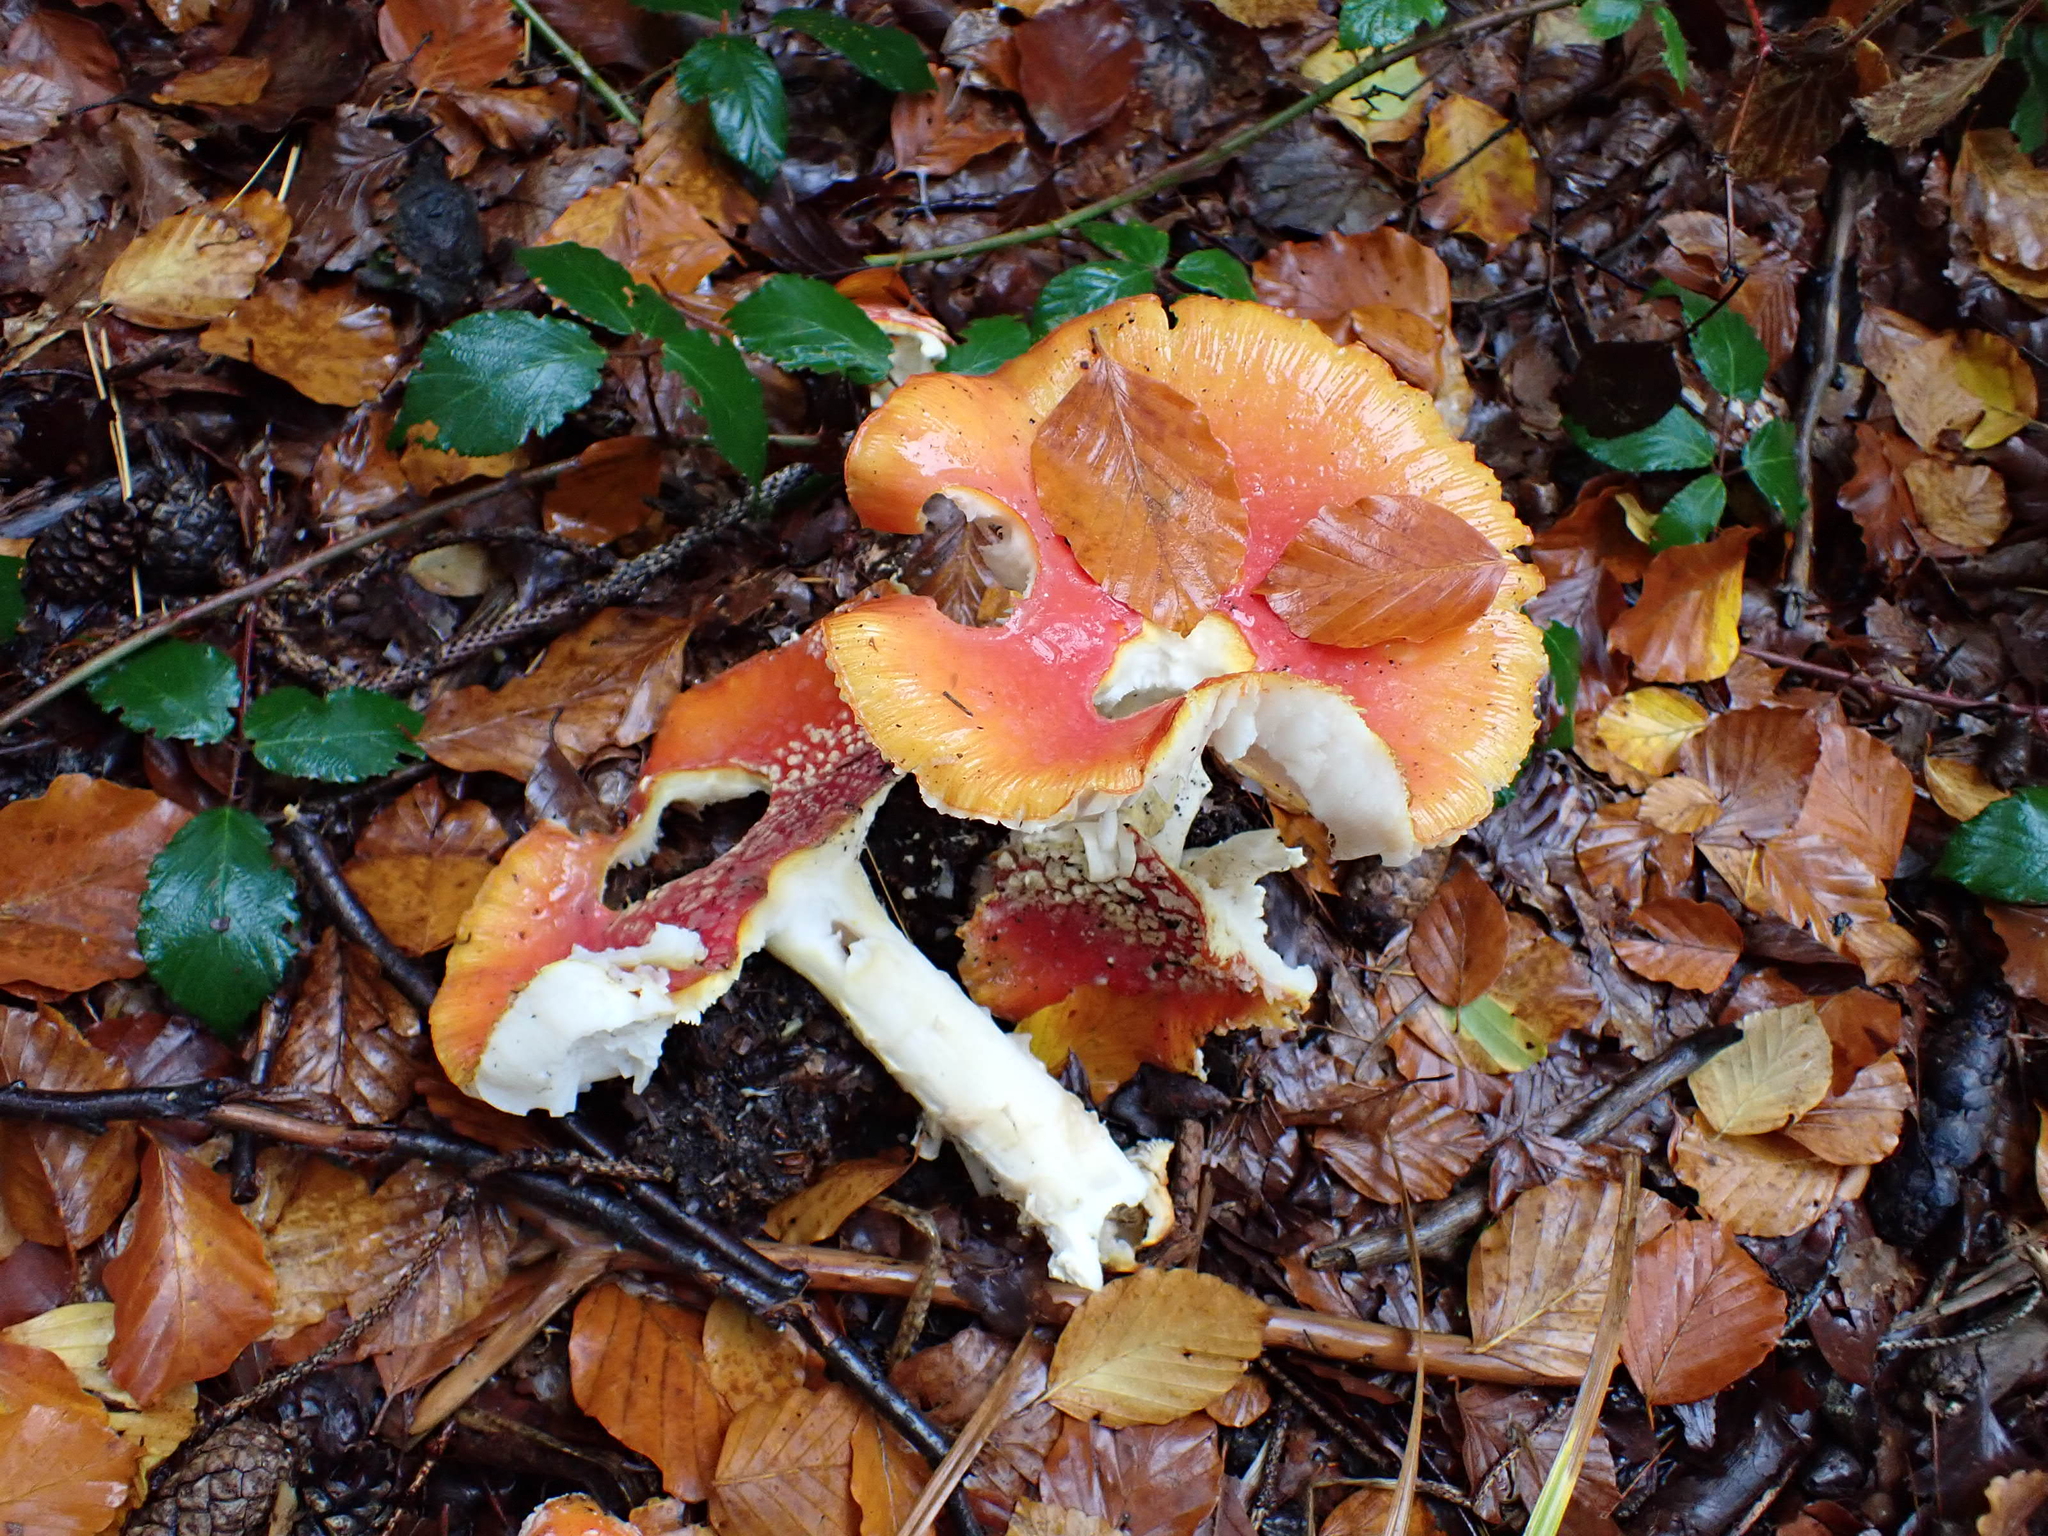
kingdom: Fungi
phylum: Basidiomycota
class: Agaricomycetes
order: Agaricales
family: Amanitaceae
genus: Amanita
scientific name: Amanita muscaria
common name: Fly agaric
